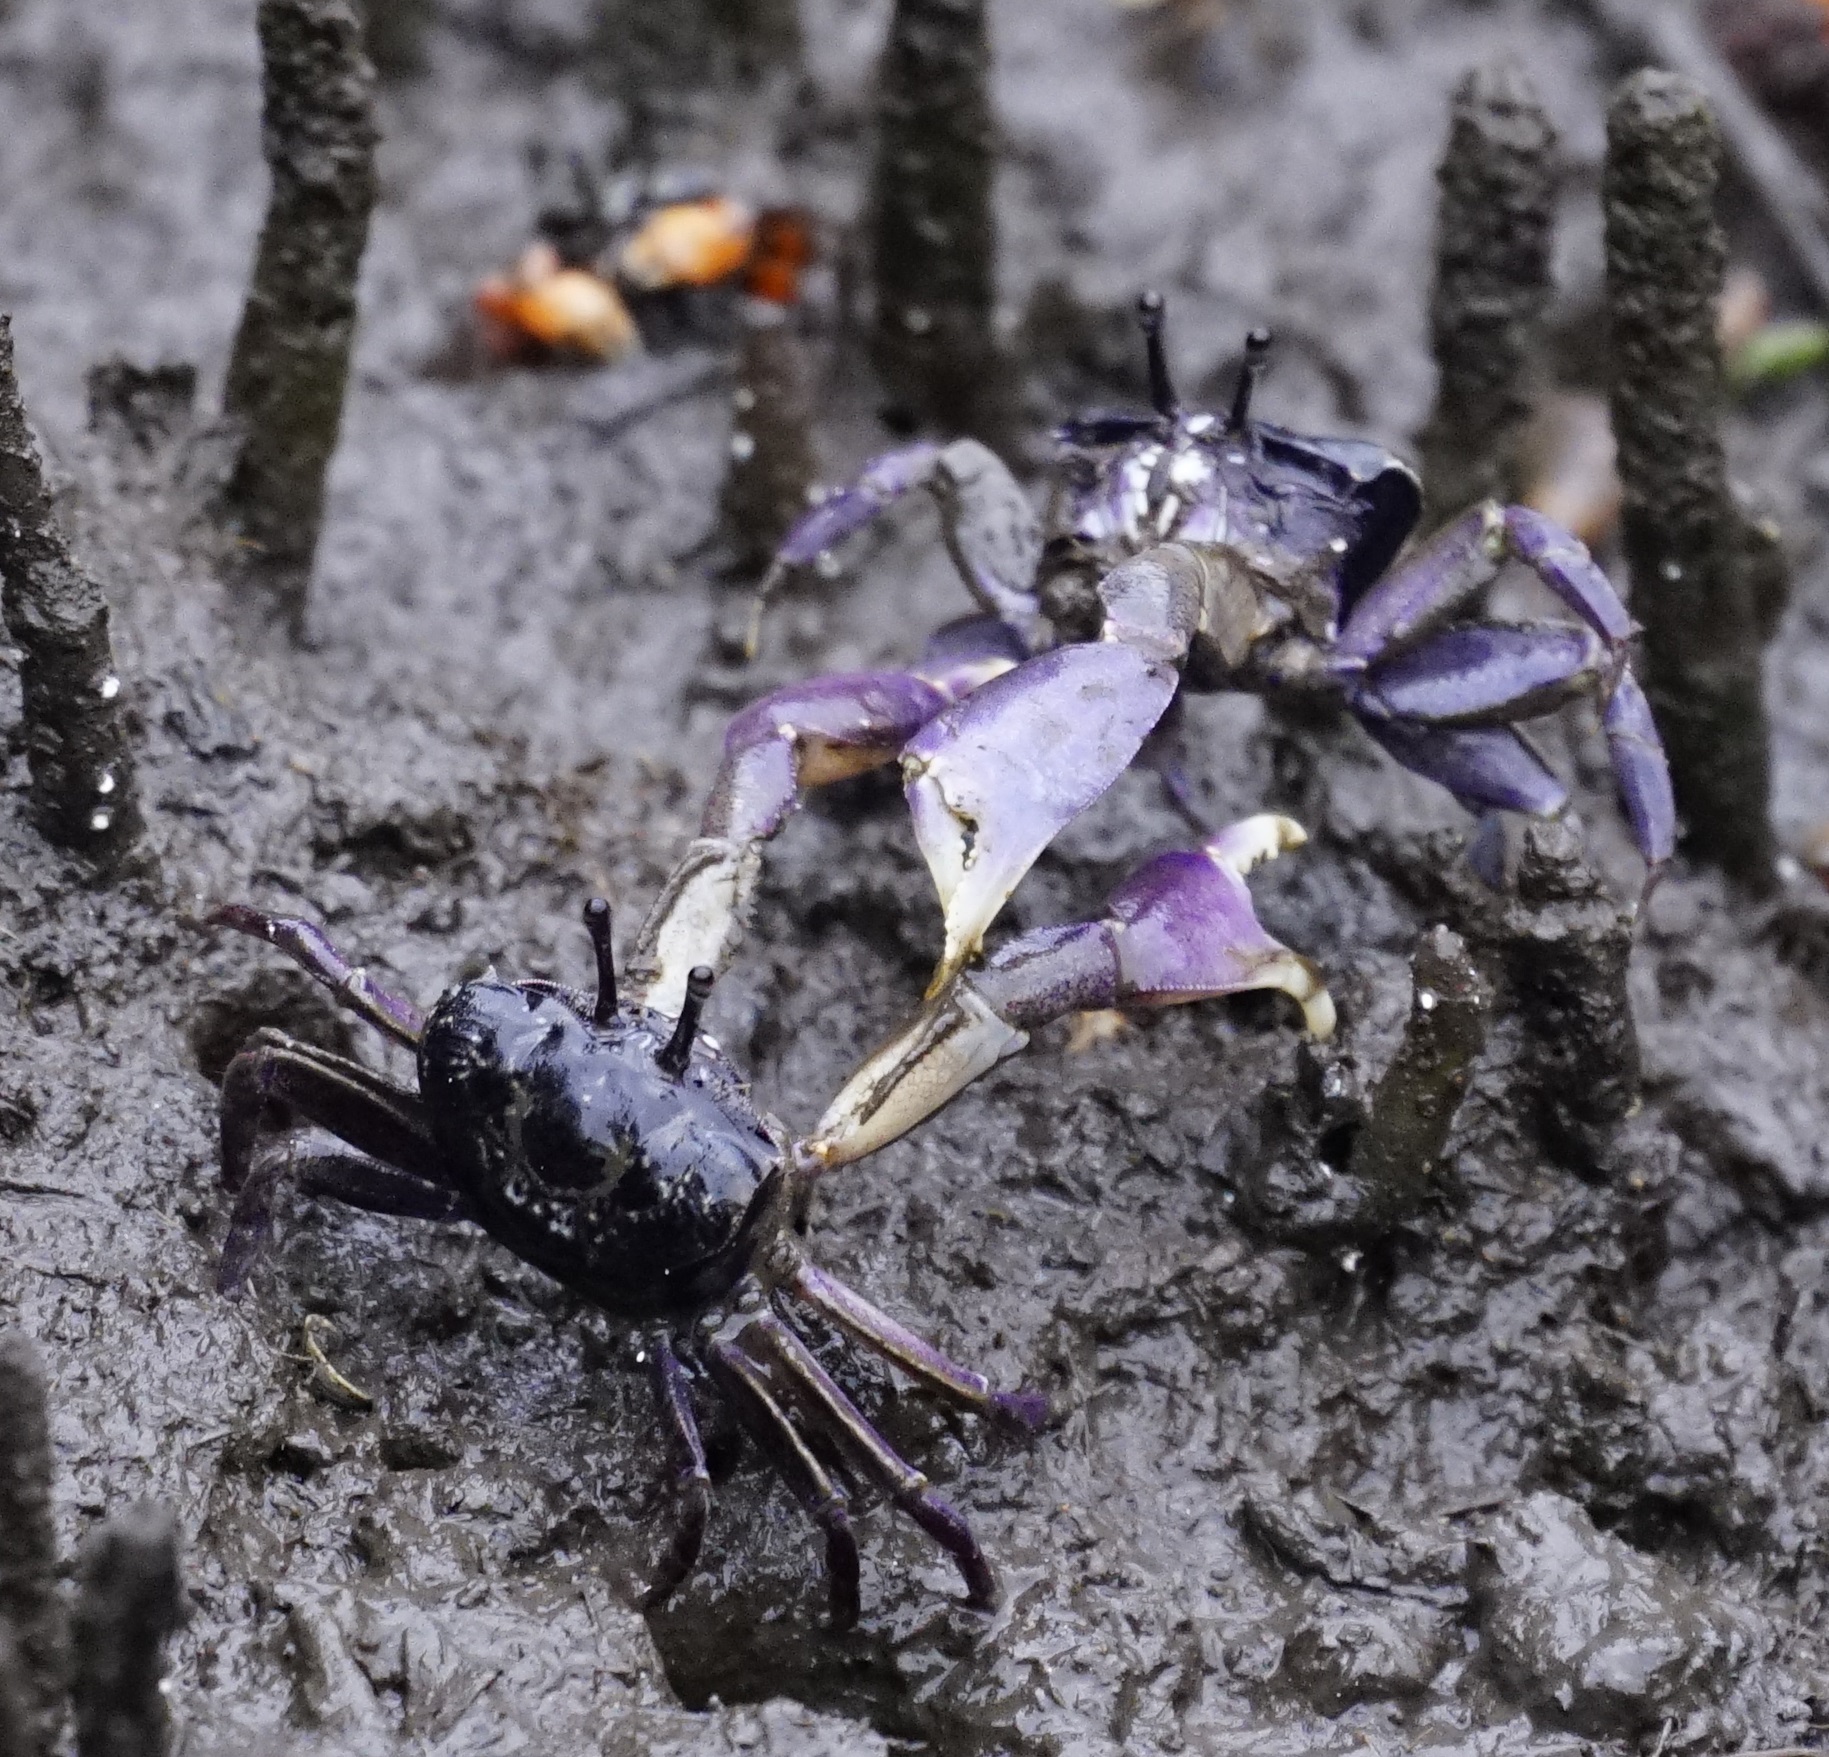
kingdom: Animalia
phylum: Arthropoda
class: Malacostraca
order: Decapoda
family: Heloeciidae
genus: Heloecius
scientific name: Heloecius cordiformis
